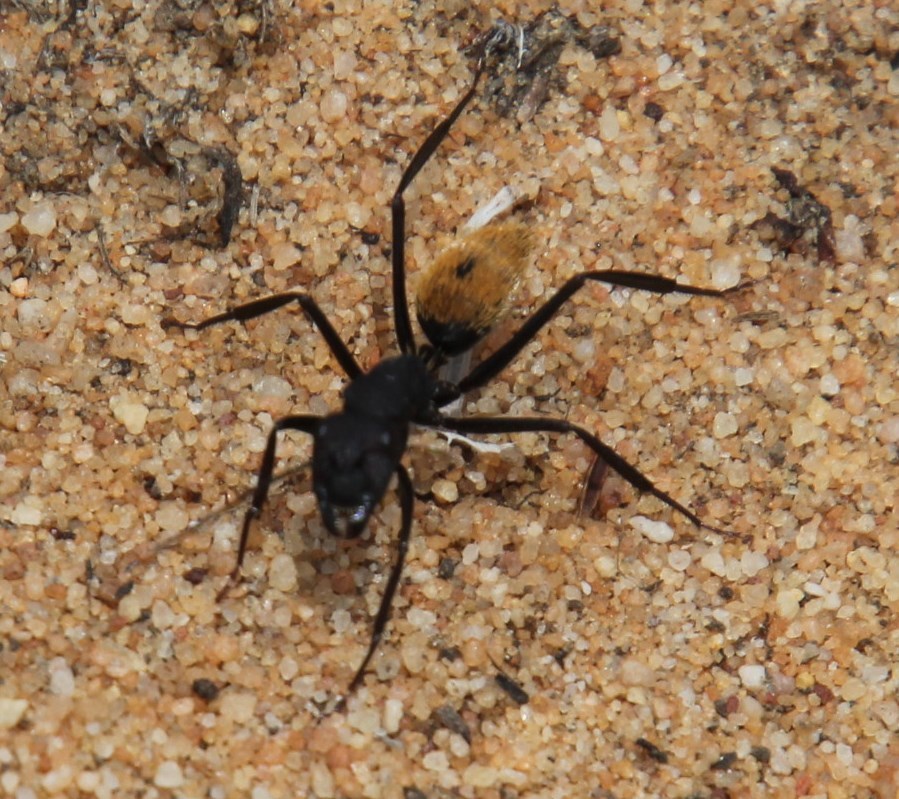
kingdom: Animalia
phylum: Arthropoda
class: Insecta
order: Hymenoptera
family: Formicidae
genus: Camponotus
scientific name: Camponotus fulvopilosus
